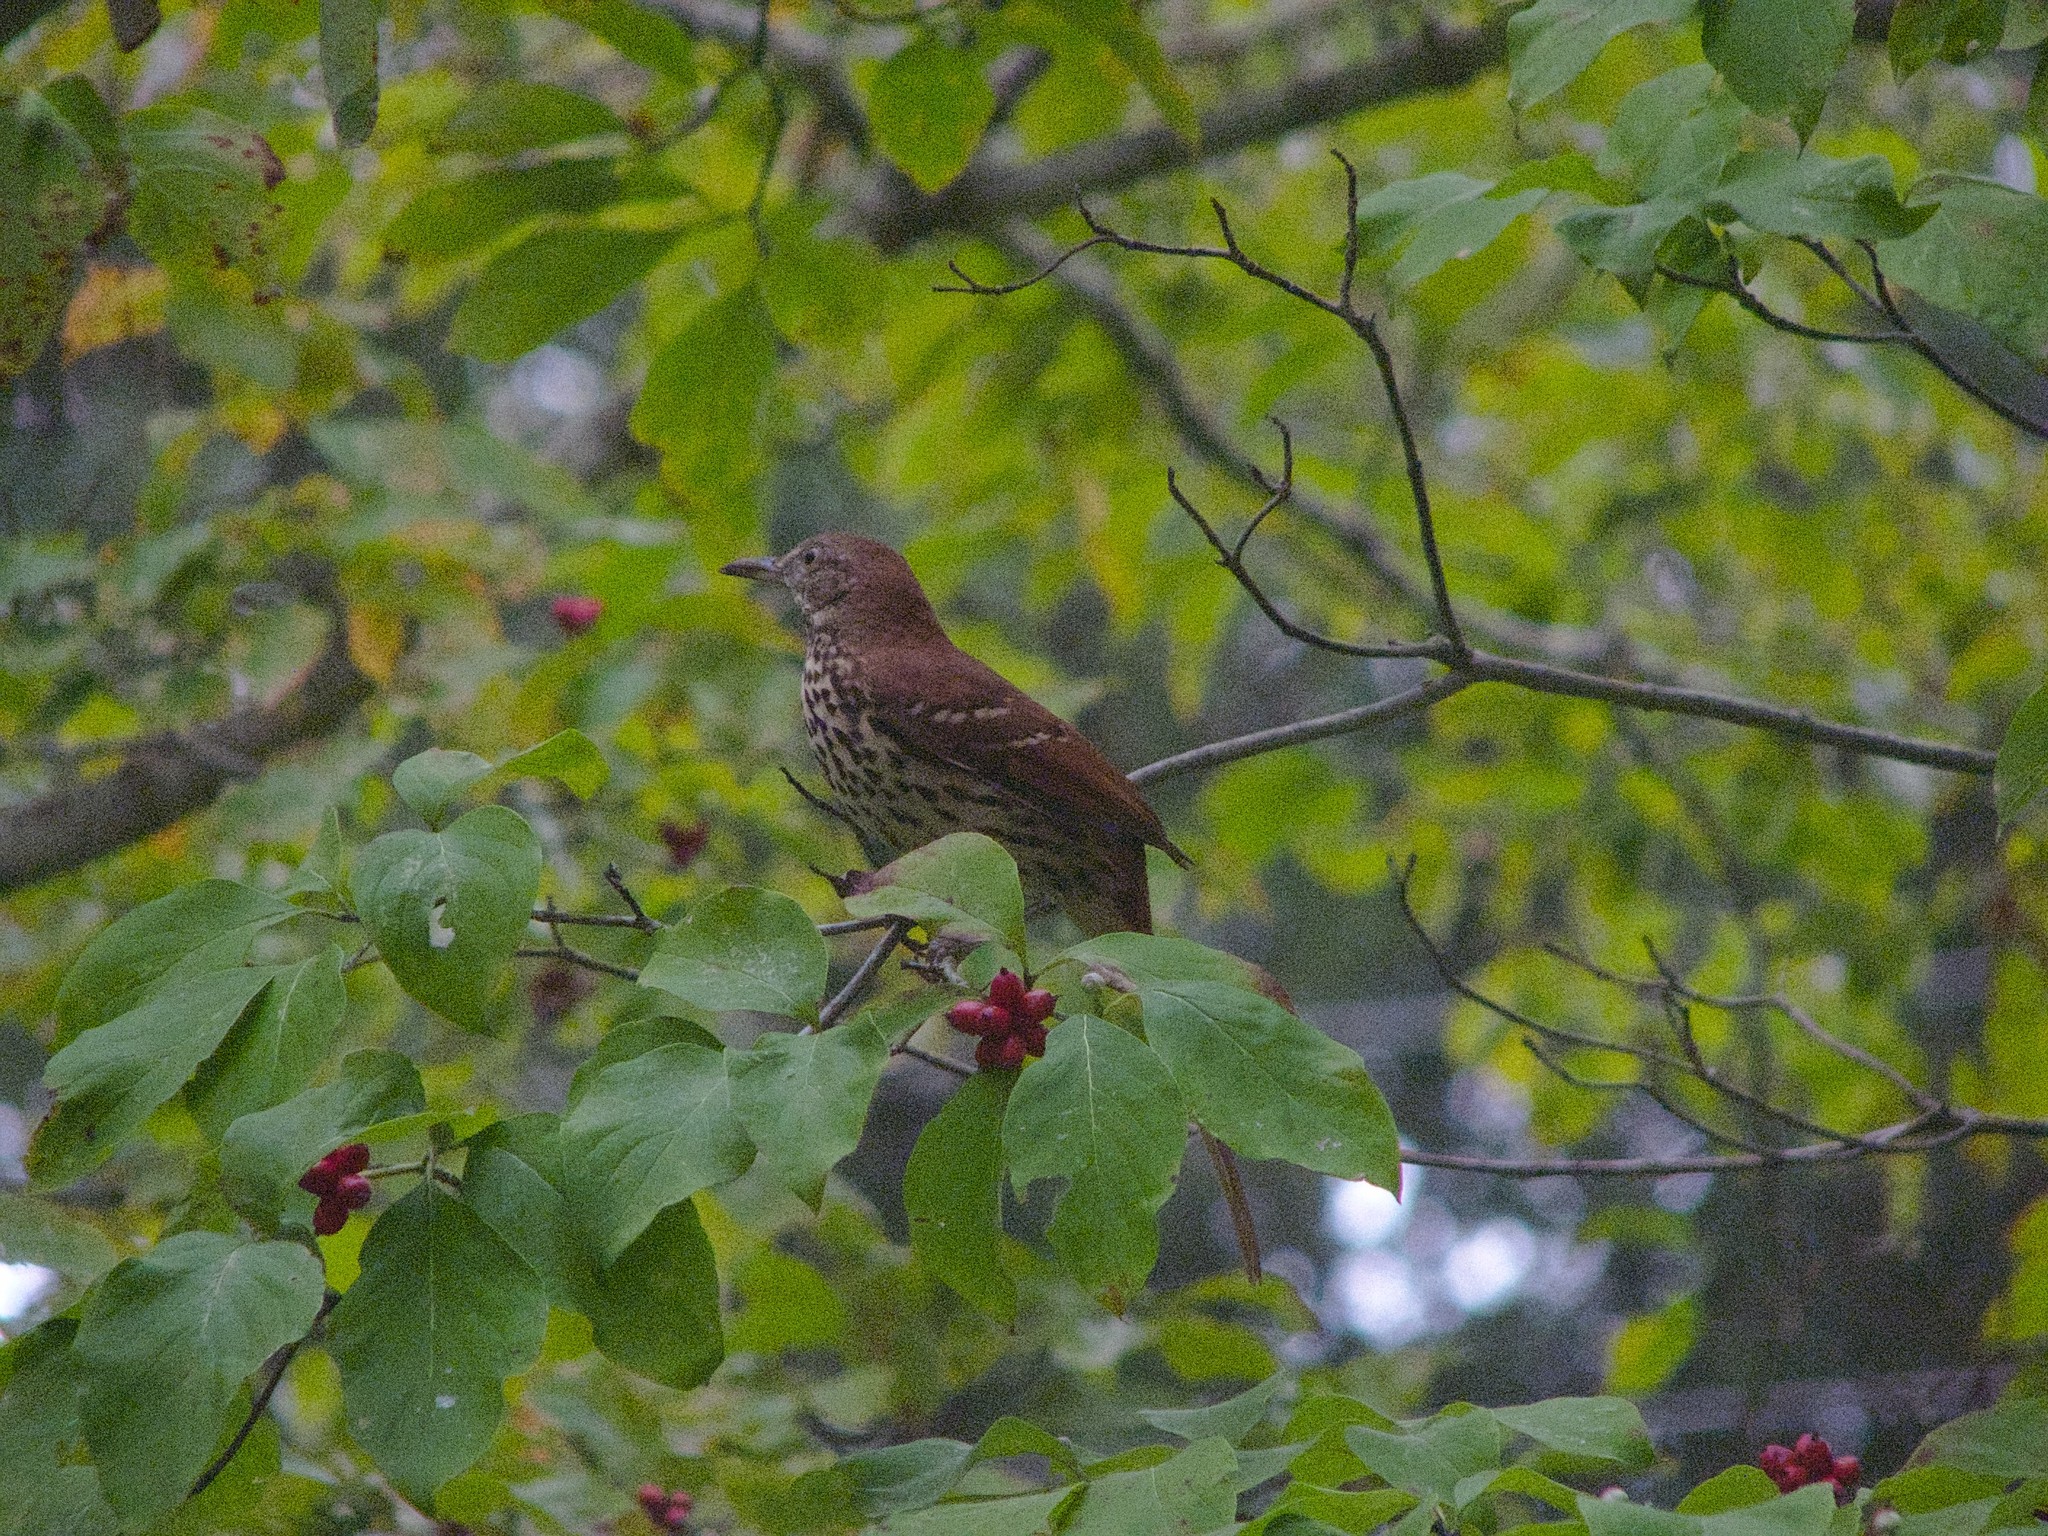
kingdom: Animalia
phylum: Chordata
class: Aves
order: Passeriformes
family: Mimidae
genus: Toxostoma
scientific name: Toxostoma rufum
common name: Brown thrasher
